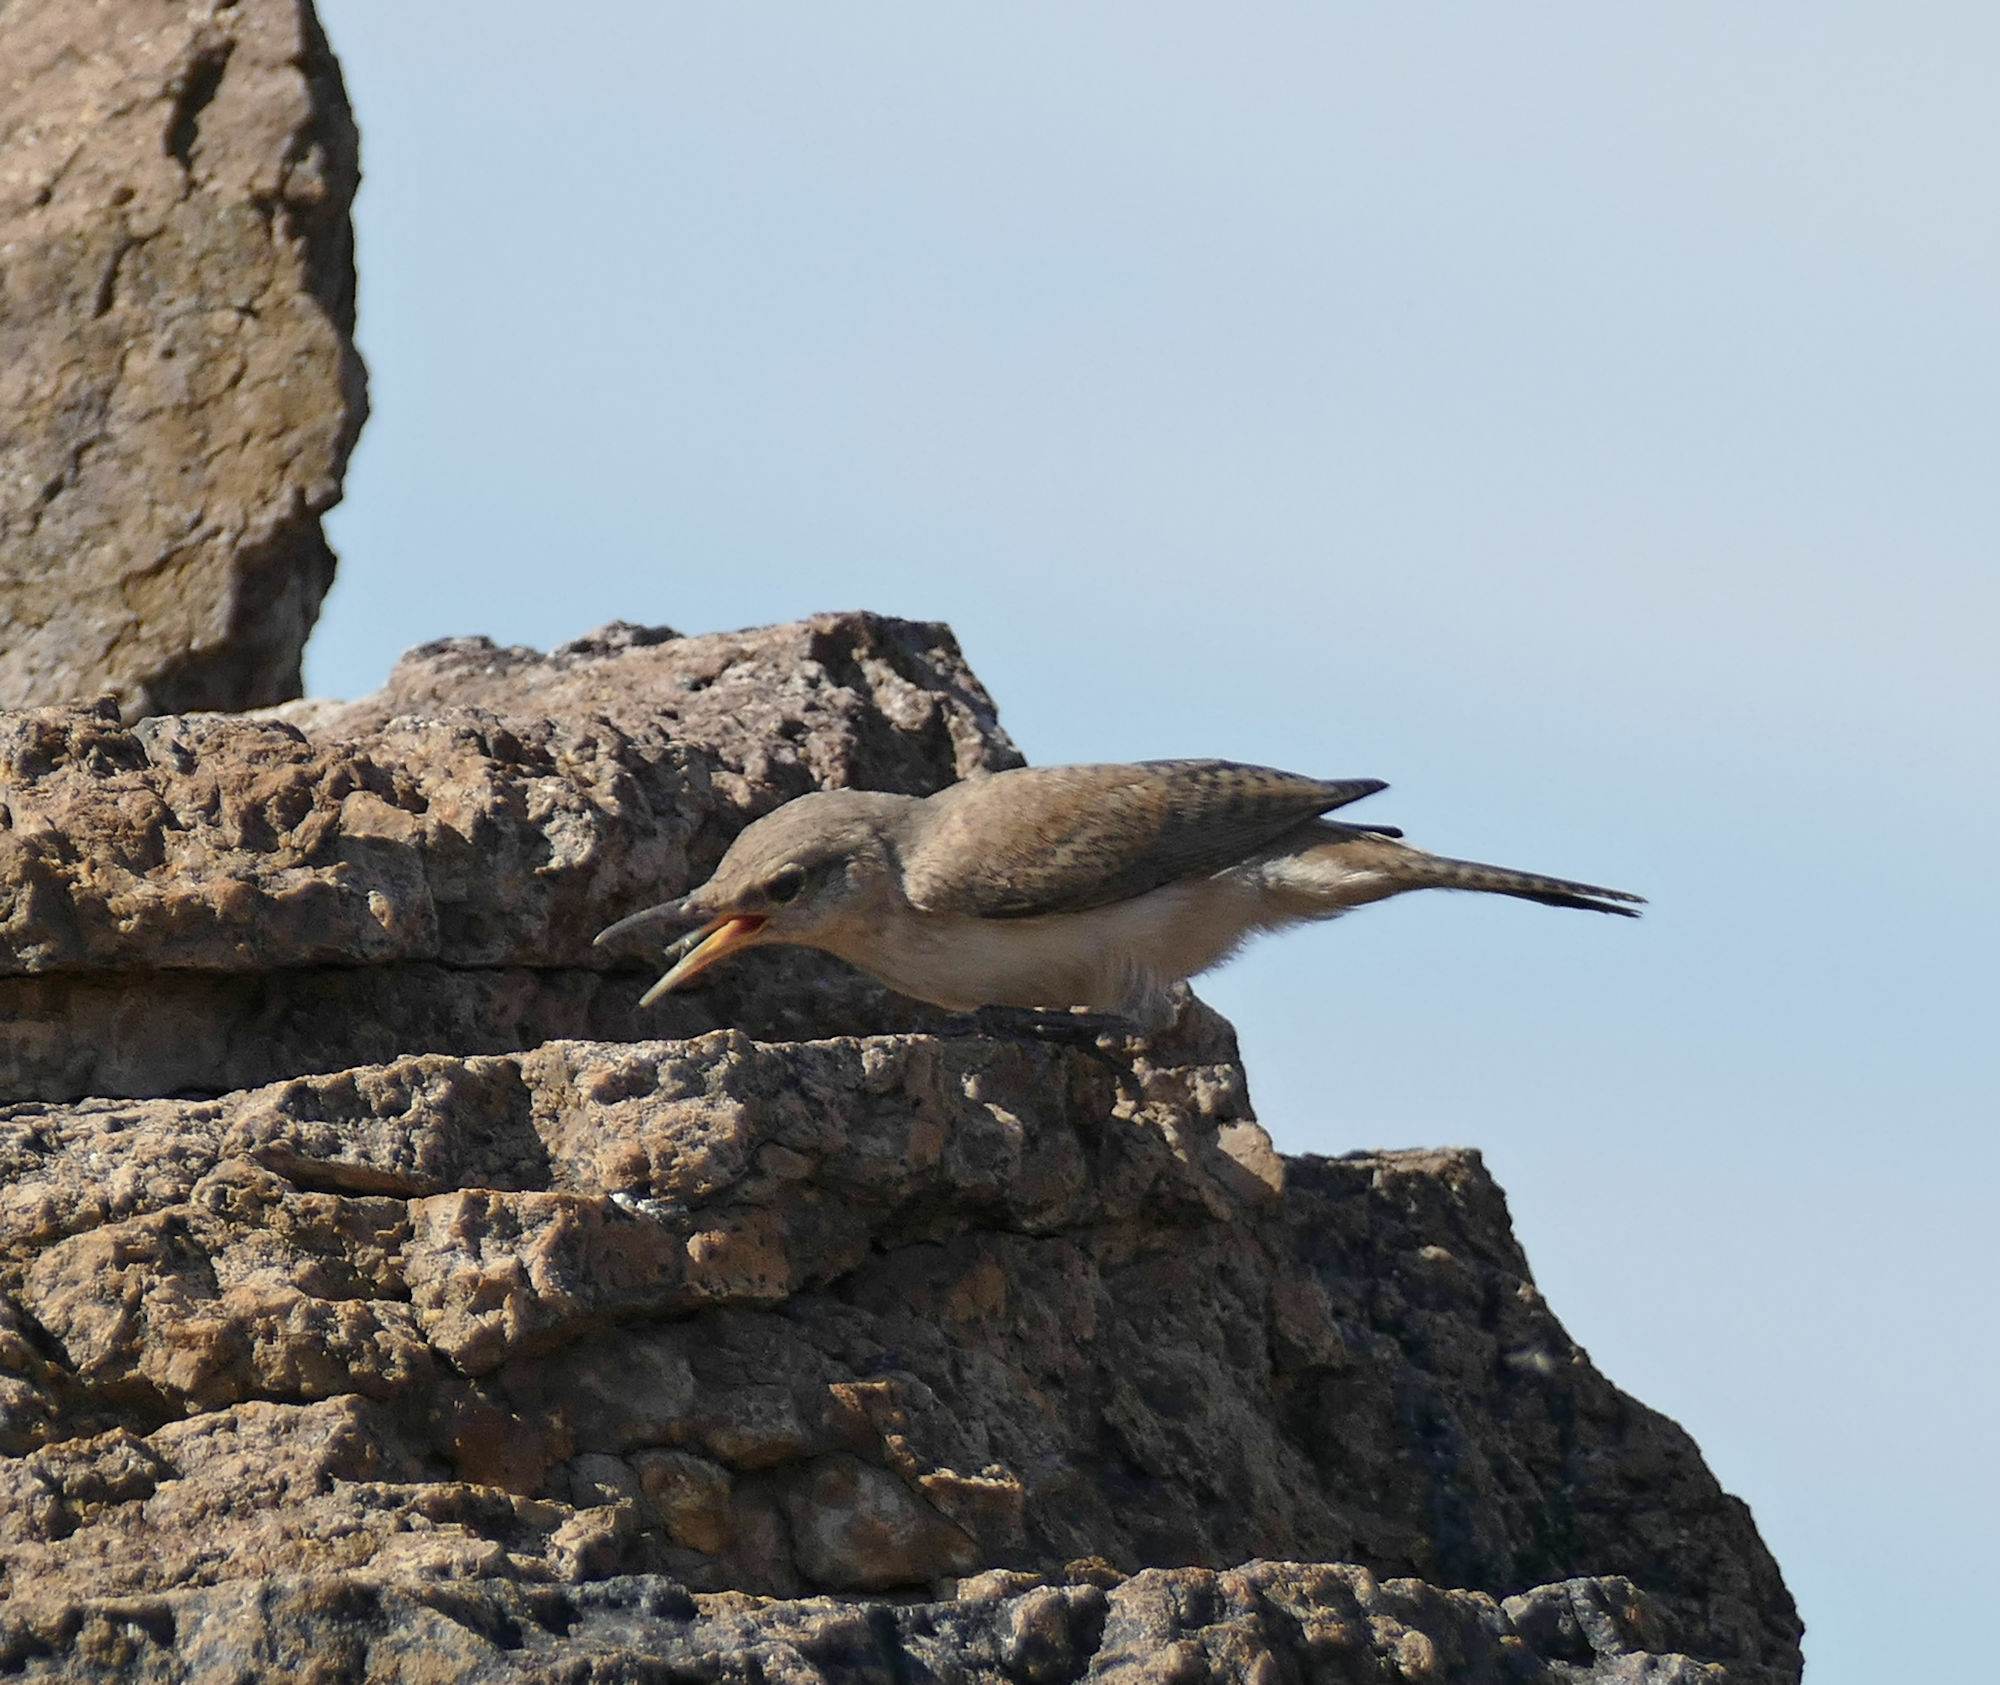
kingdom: Animalia
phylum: Chordata
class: Aves
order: Passeriformes
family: Troglodytidae
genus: Salpinctes
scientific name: Salpinctes obsoletus
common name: Rock wren
